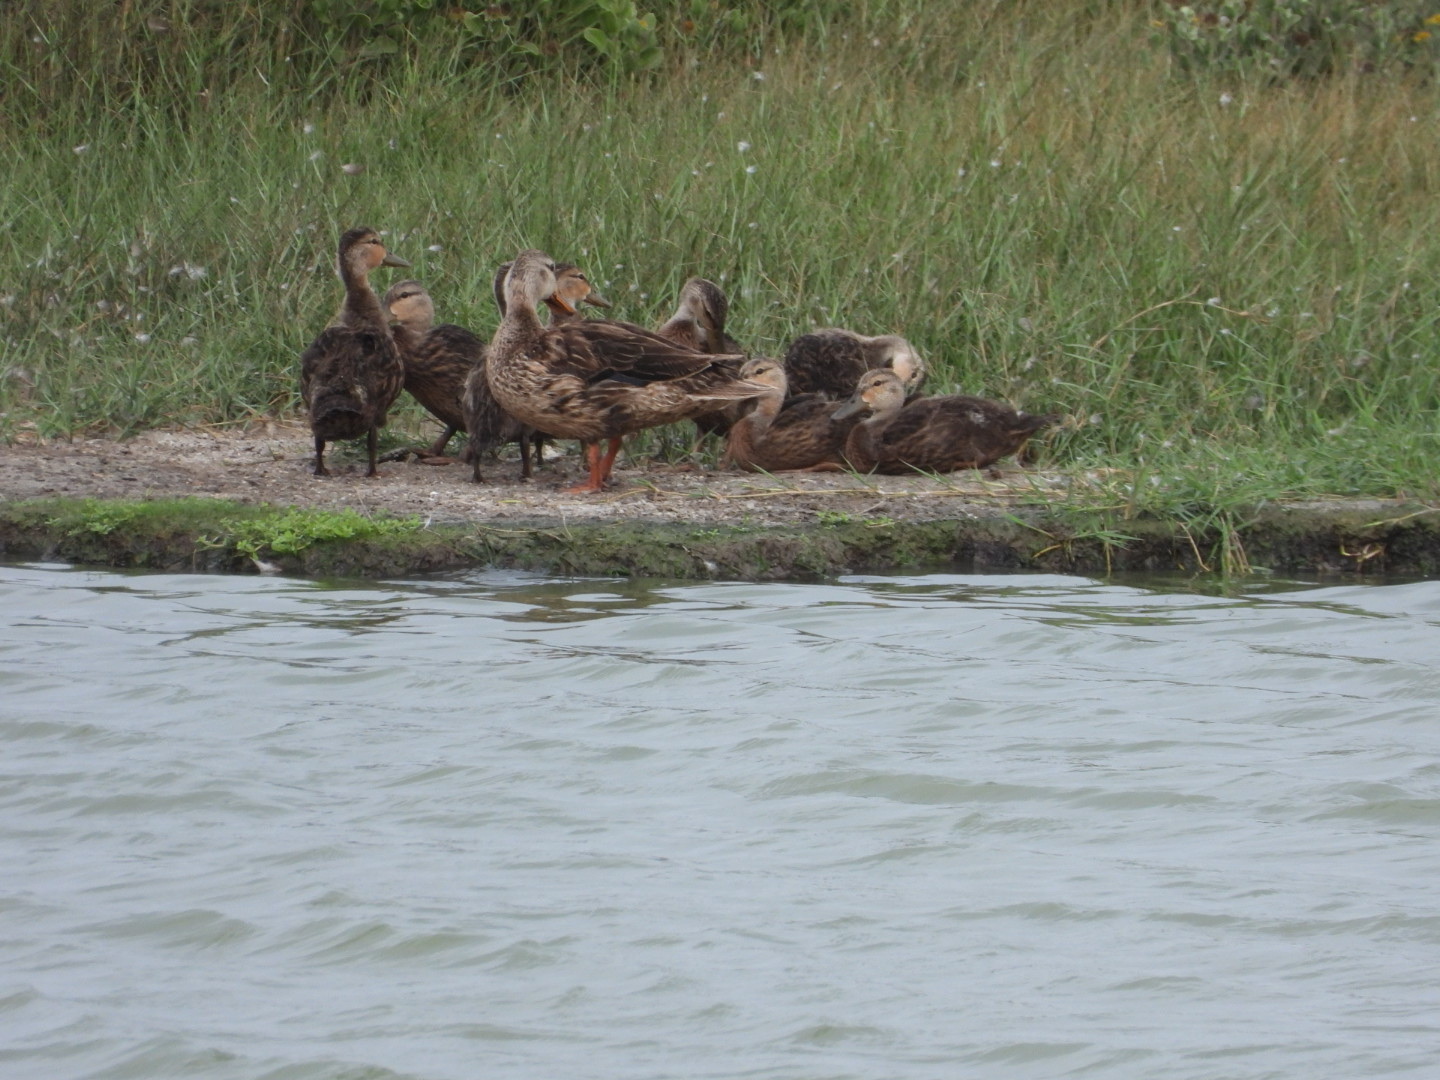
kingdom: Animalia
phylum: Chordata
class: Aves
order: Anseriformes
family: Anatidae
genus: Anas
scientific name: Anas fulvigula
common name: Mottled duck
